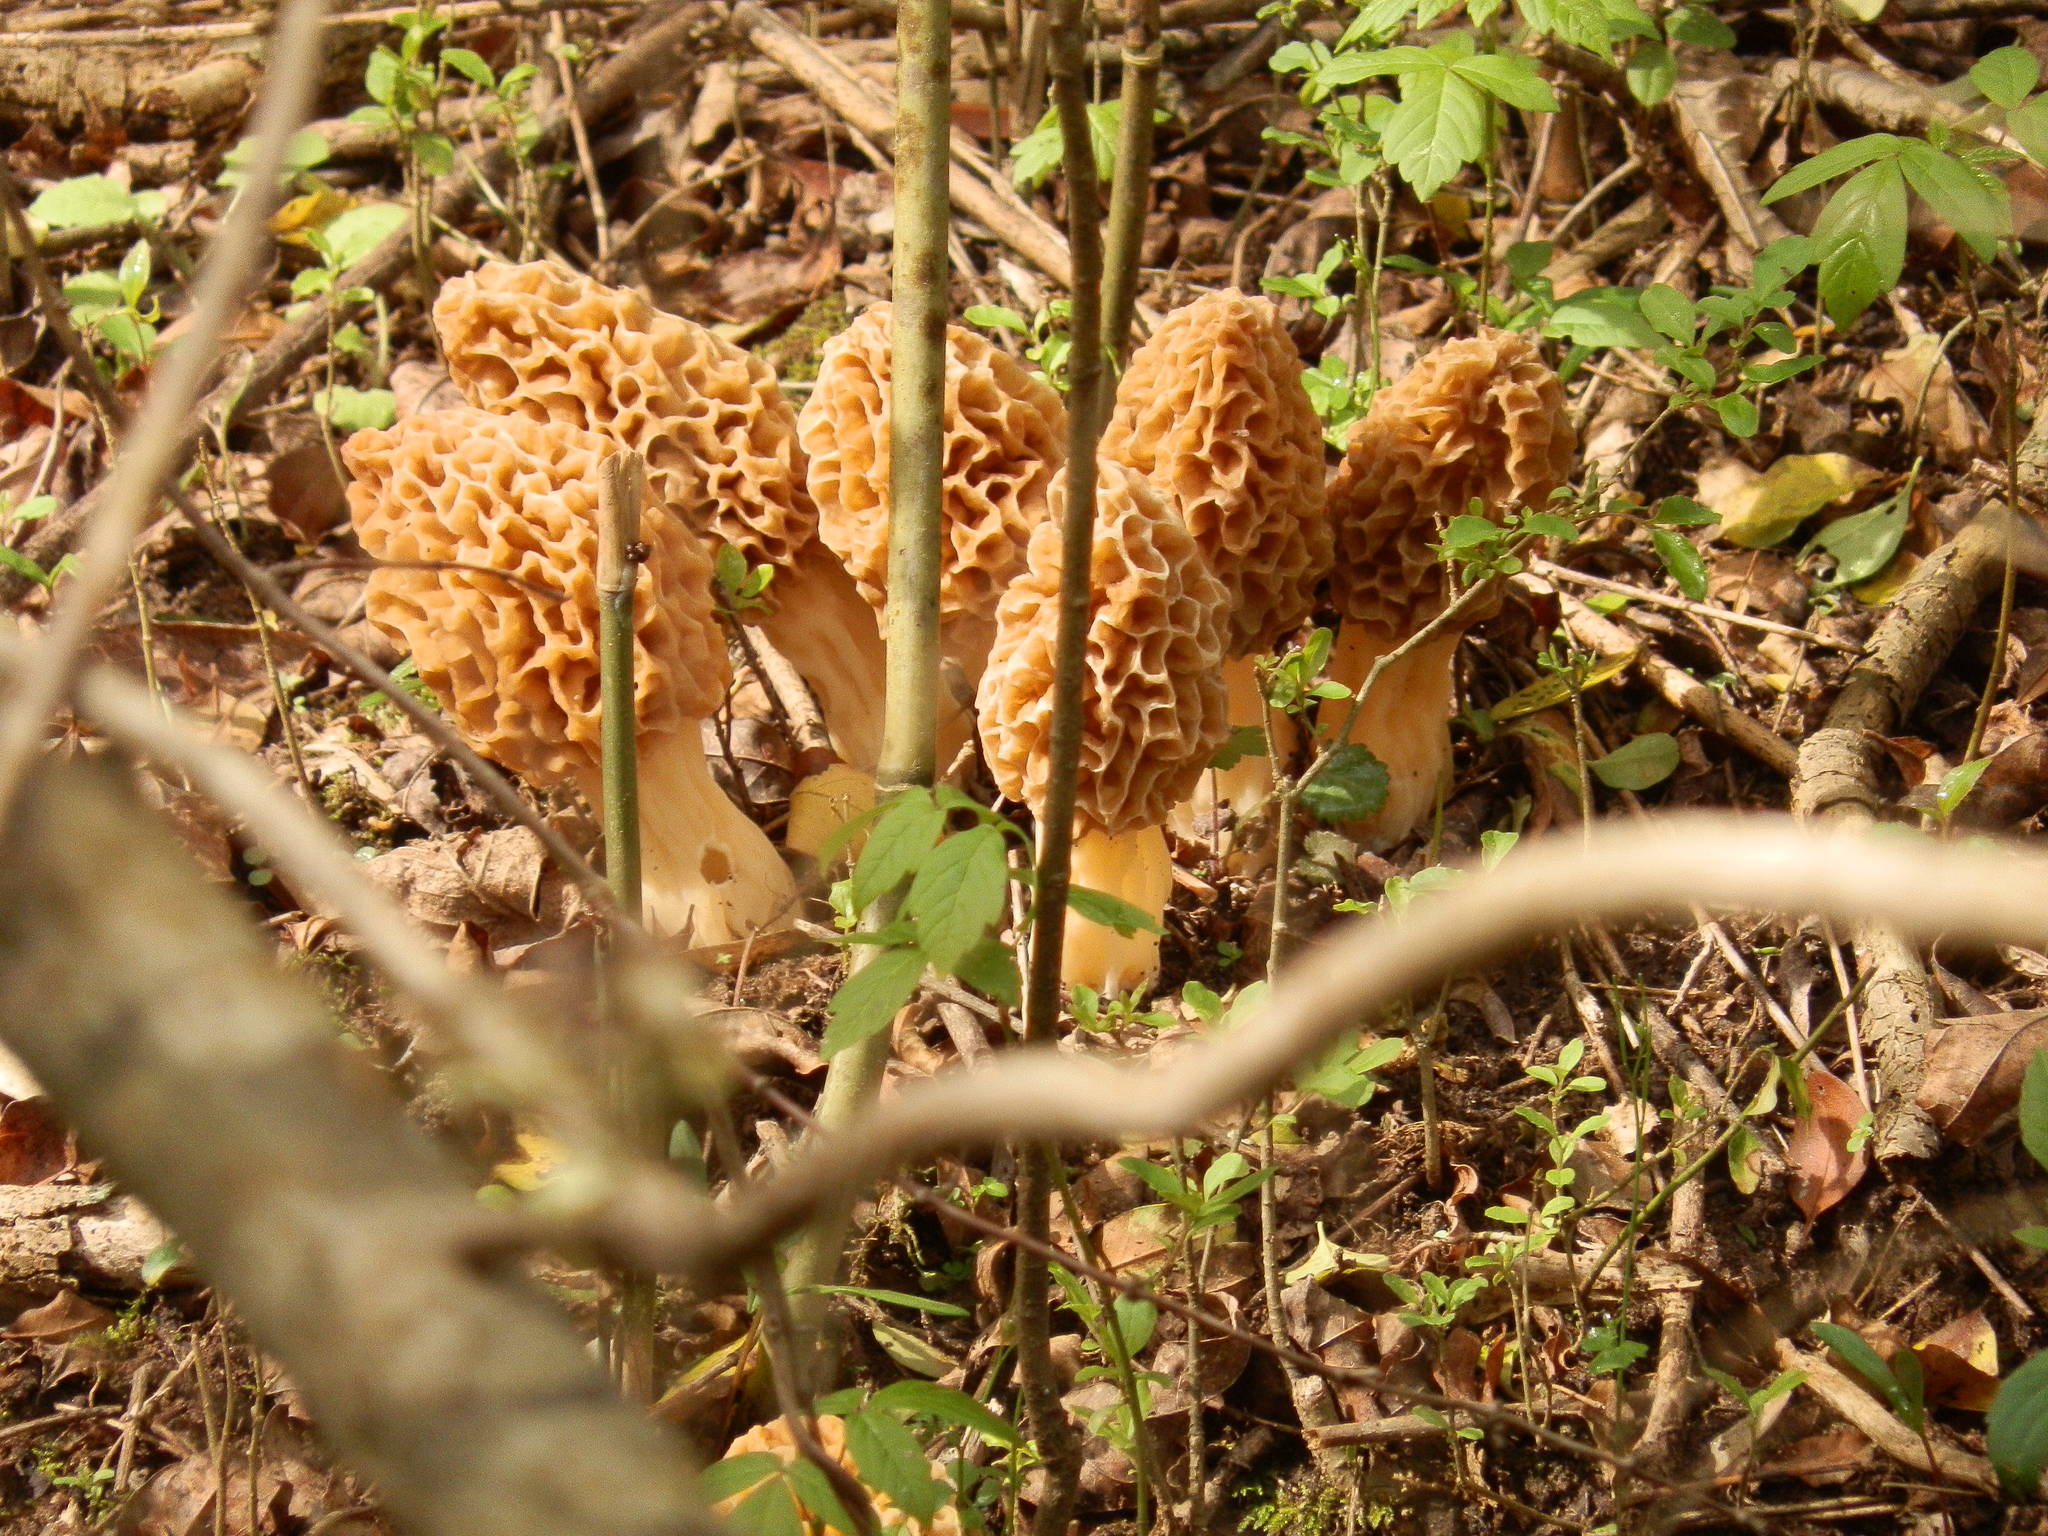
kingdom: Fungi
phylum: Ascomycota
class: Pezizomycetes
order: Pezizales
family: Morchellaceae
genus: Morchella
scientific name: Morchella americana
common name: White morel
